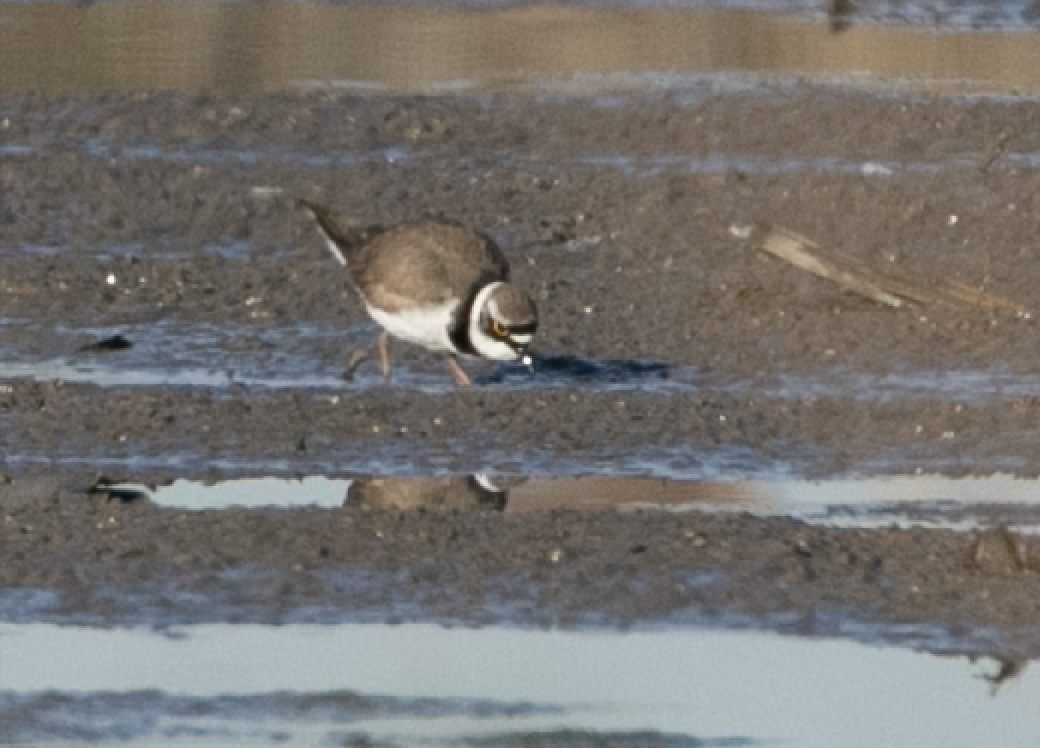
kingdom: Animalia
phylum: Chordata
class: Aves
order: Charadriiformes
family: Charadriidae
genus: Charadrius
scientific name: Charadrius dubius
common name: Little ringed plover
